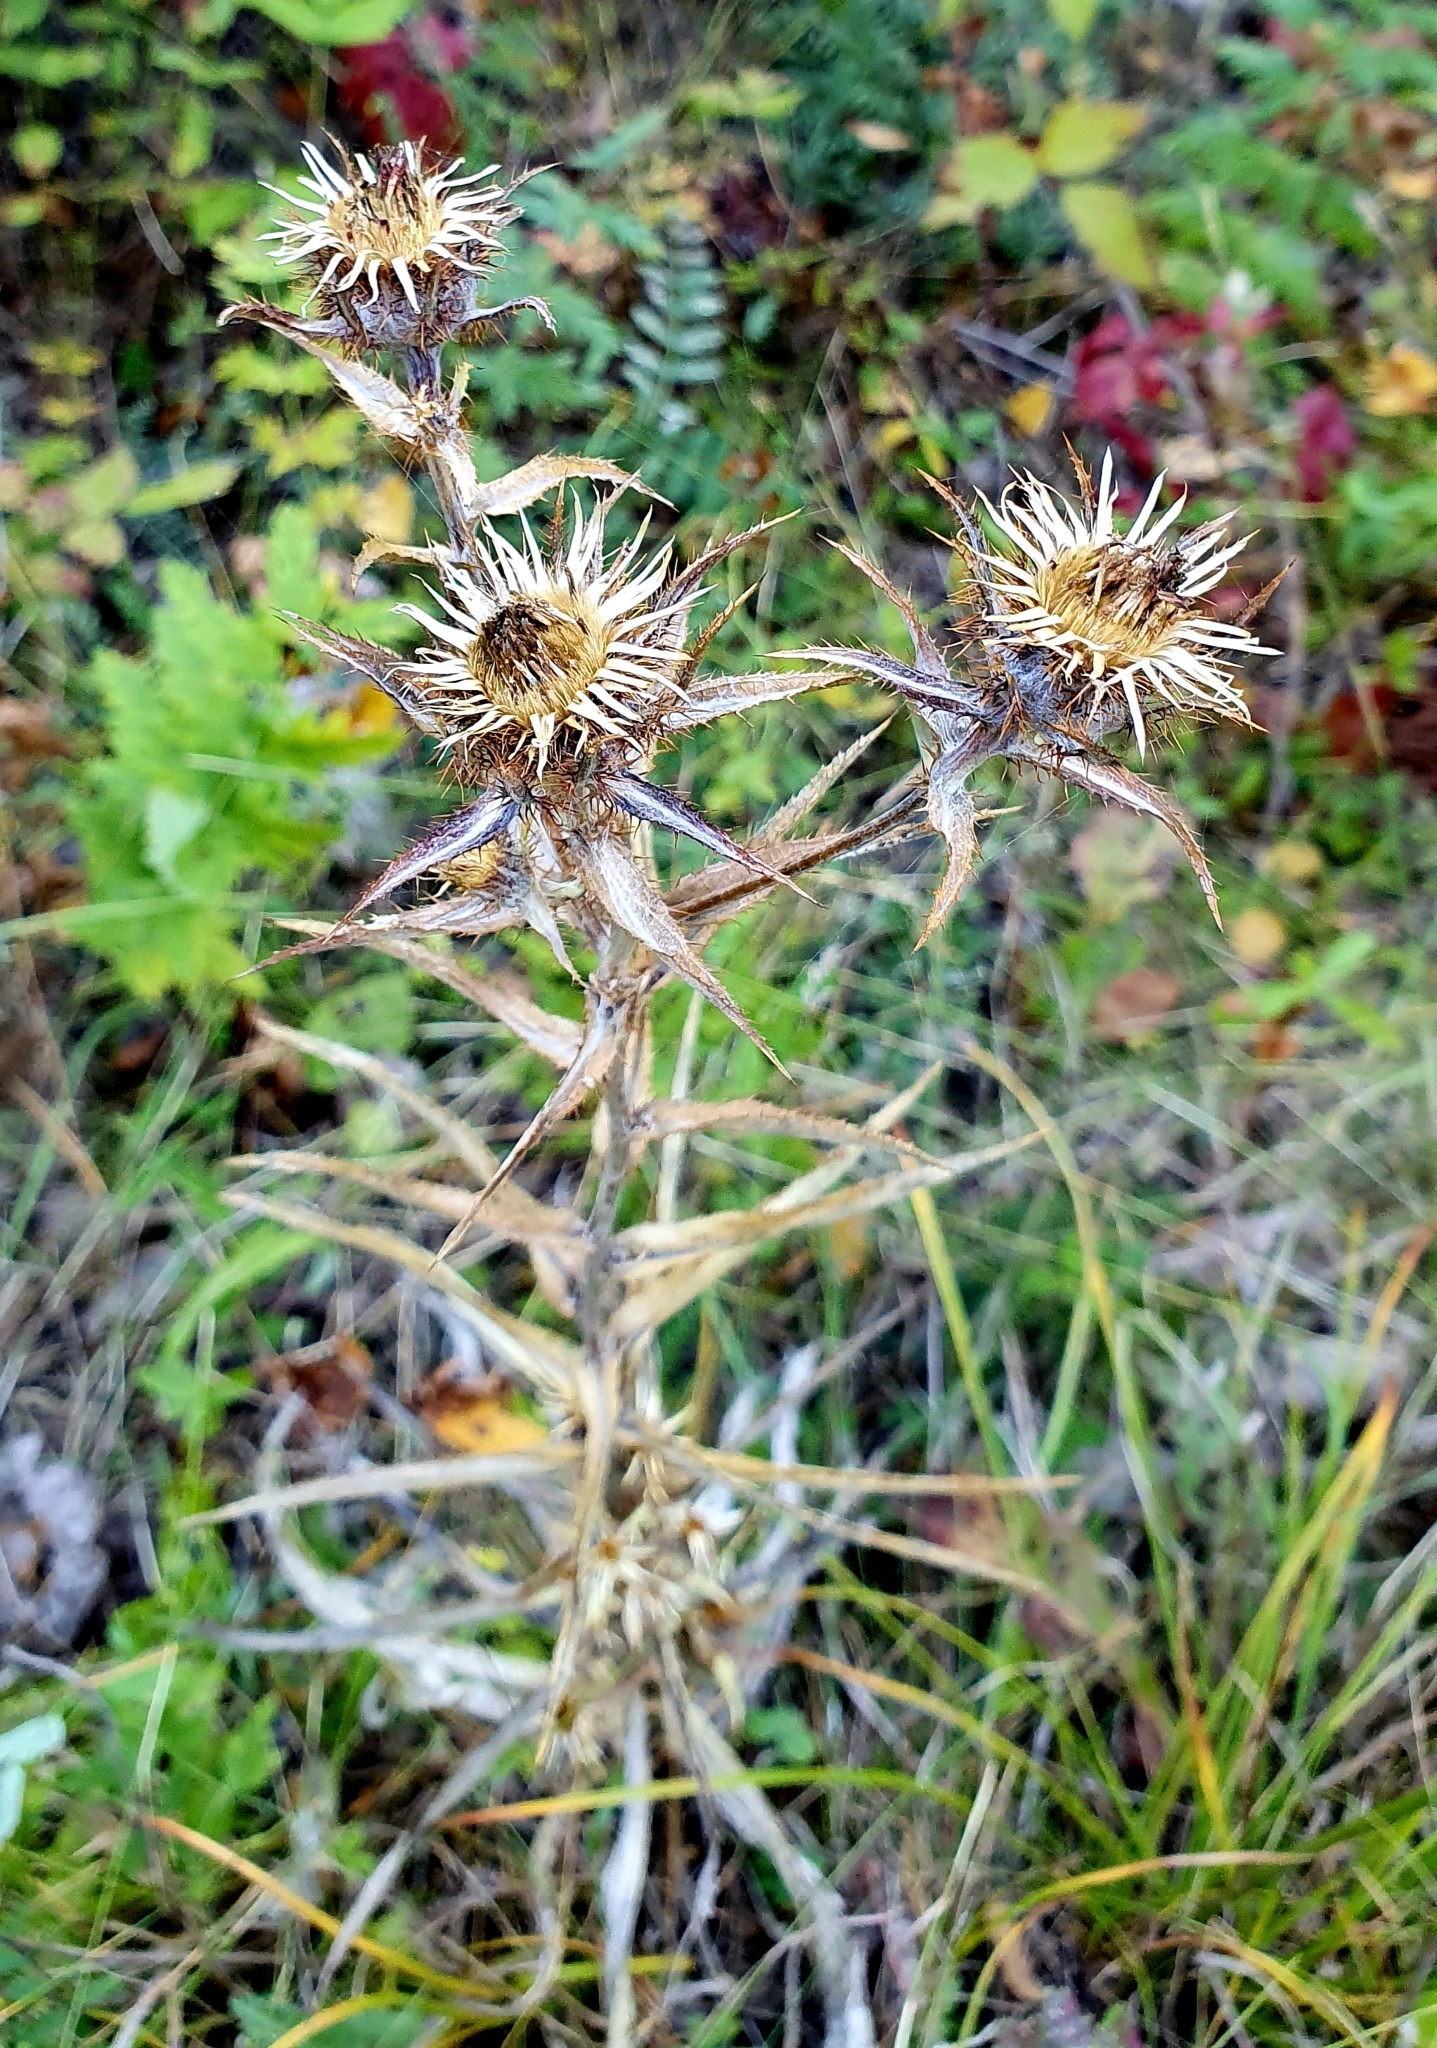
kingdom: Plantae
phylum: Tracheophyta
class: Magnoliopsida
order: Asterales
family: Asteraceae
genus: Carlina
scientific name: Carlina biebersteinii
